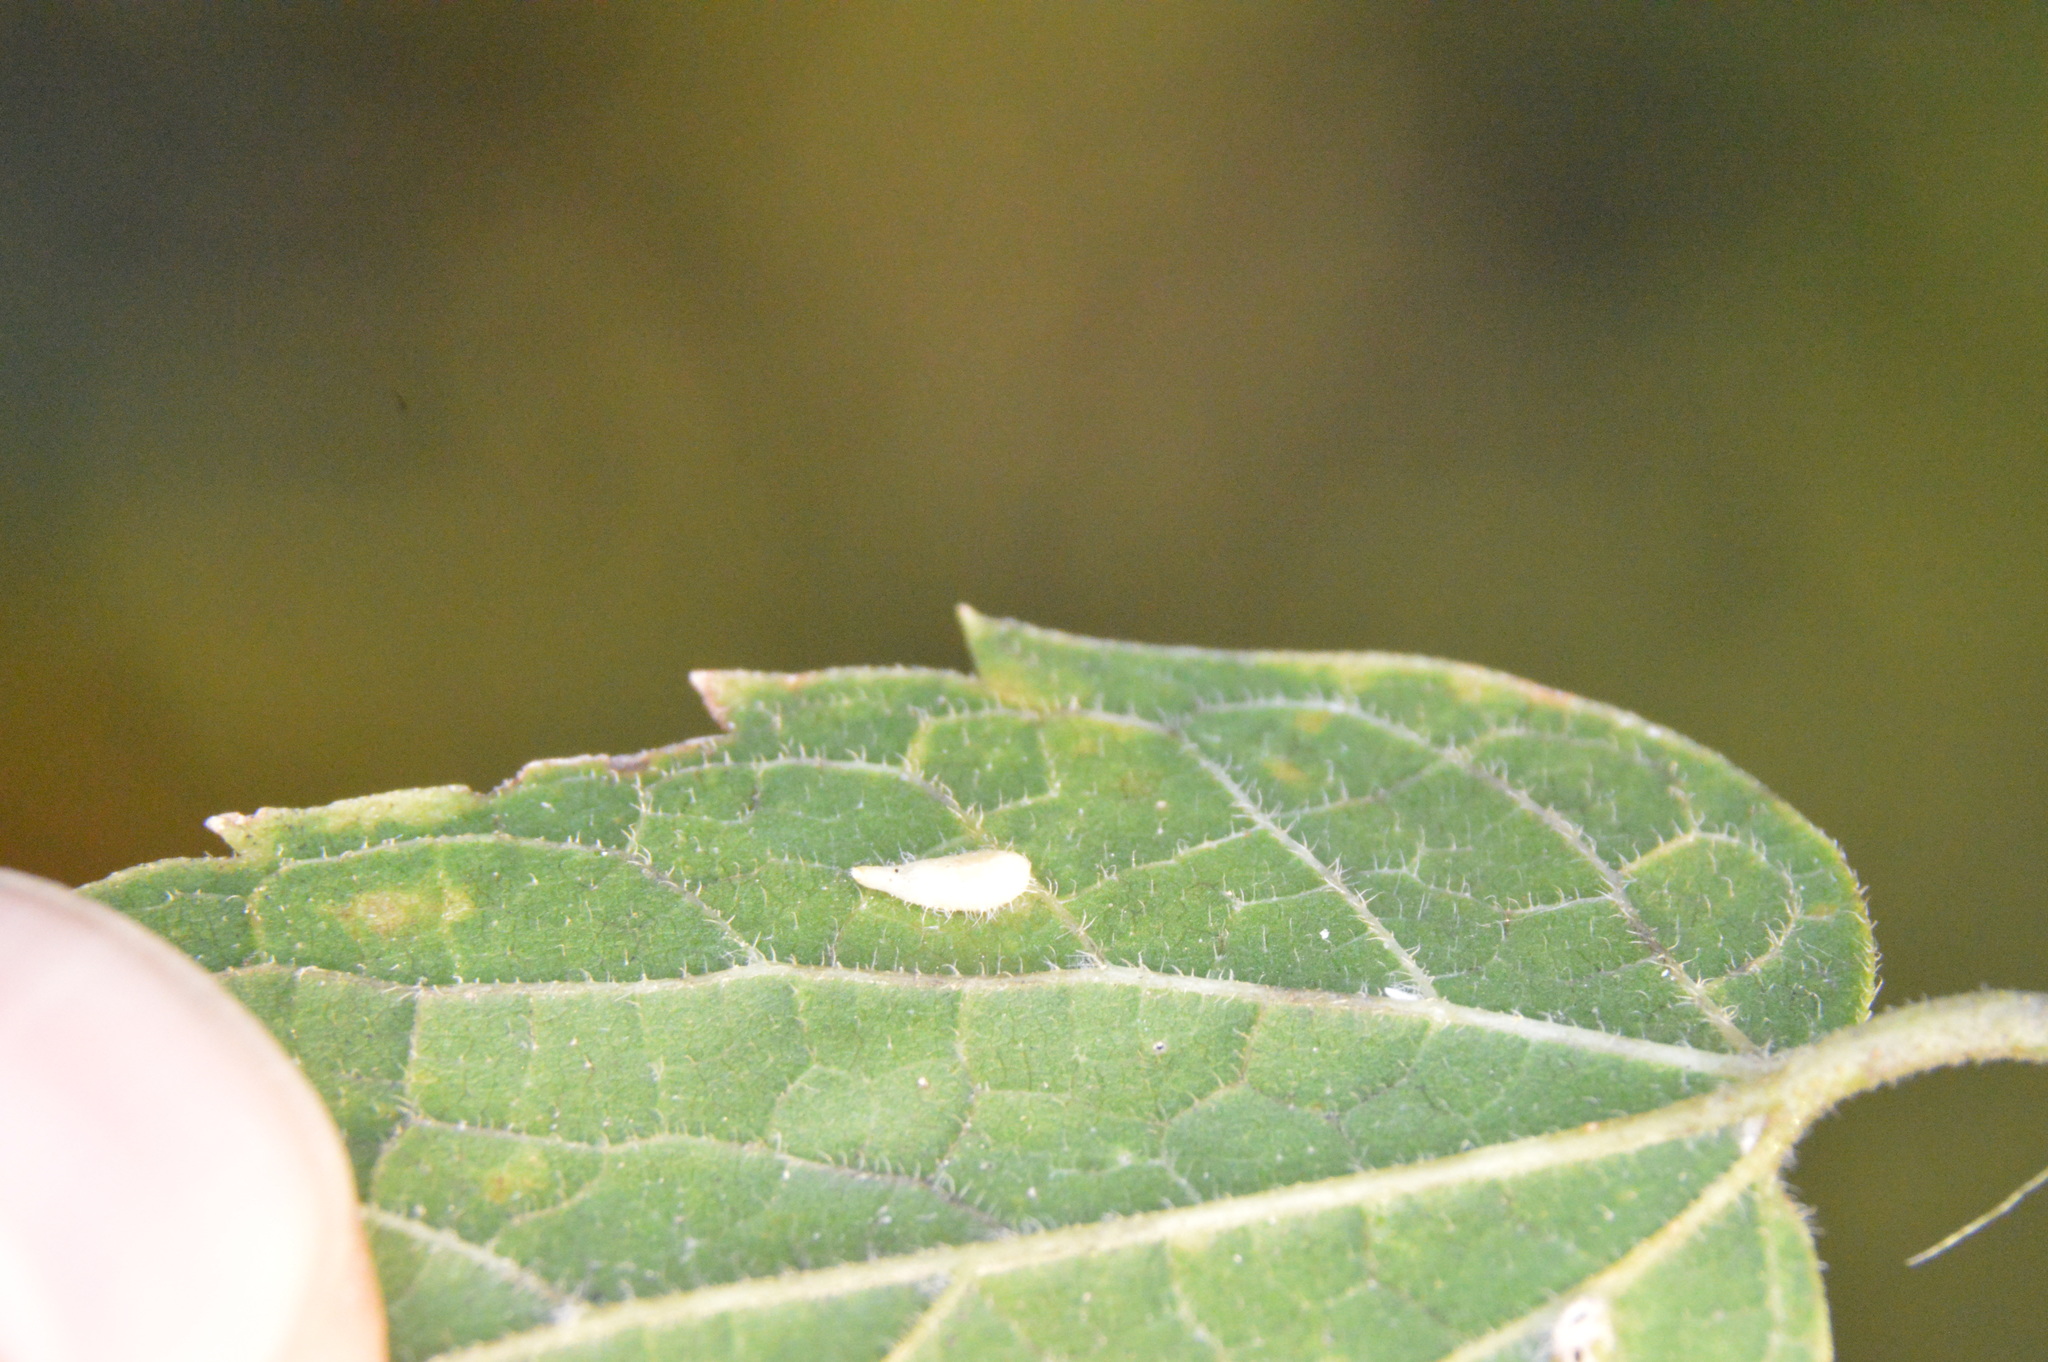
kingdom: Animalia
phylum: Arthropoda
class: Insecta
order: Diptera
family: Cecidomyiidae
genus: Celticecis
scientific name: Celticecis supina
